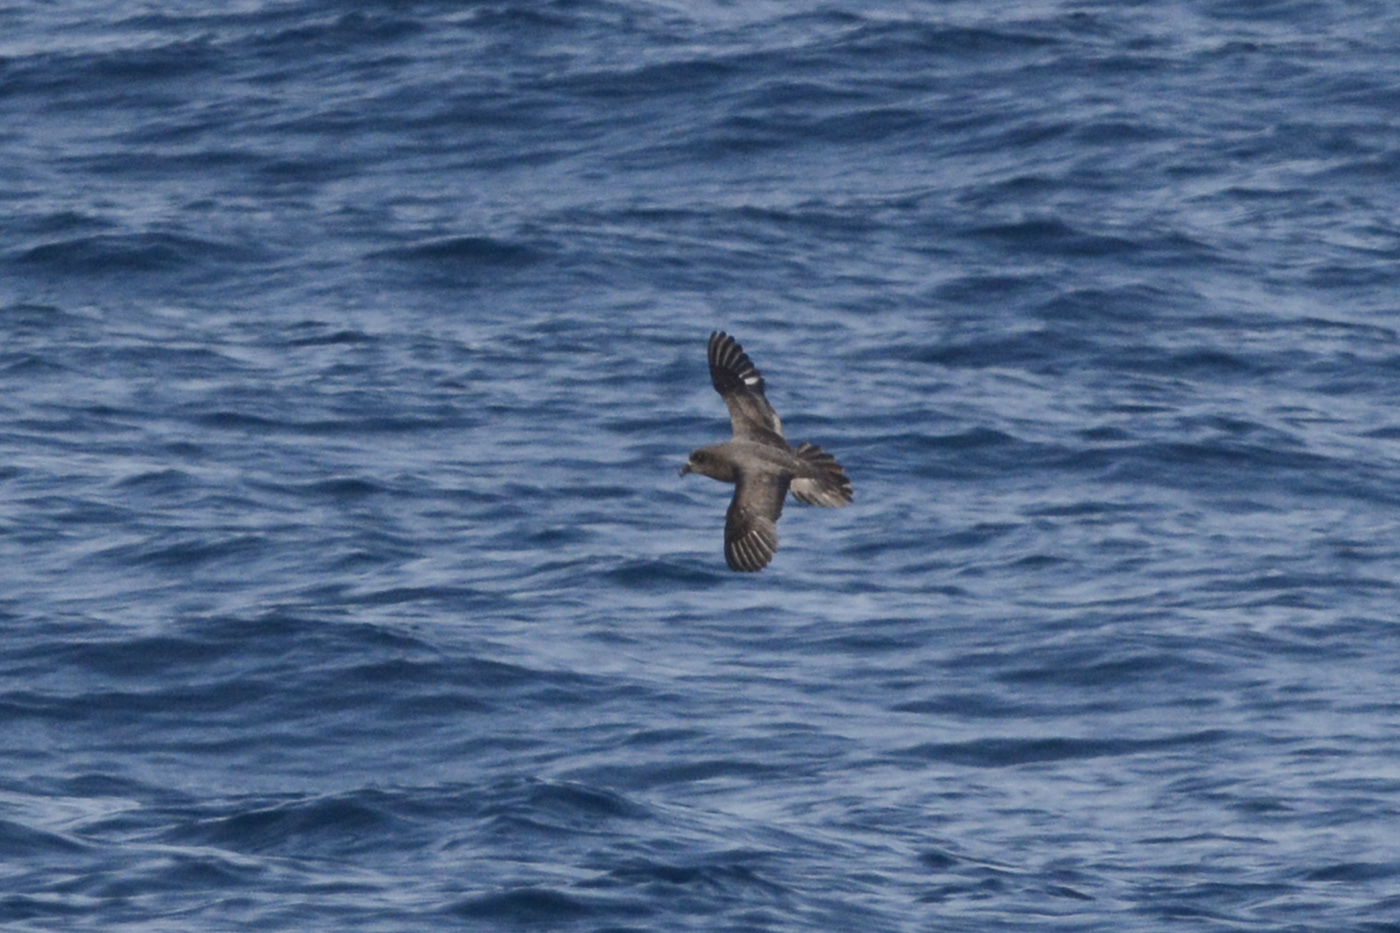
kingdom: Animalia
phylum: Chordata
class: Aves
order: Procellariiformes
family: Procellariidae
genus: Pterodroma
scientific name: Pterodroma solandri
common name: Providence petrel
